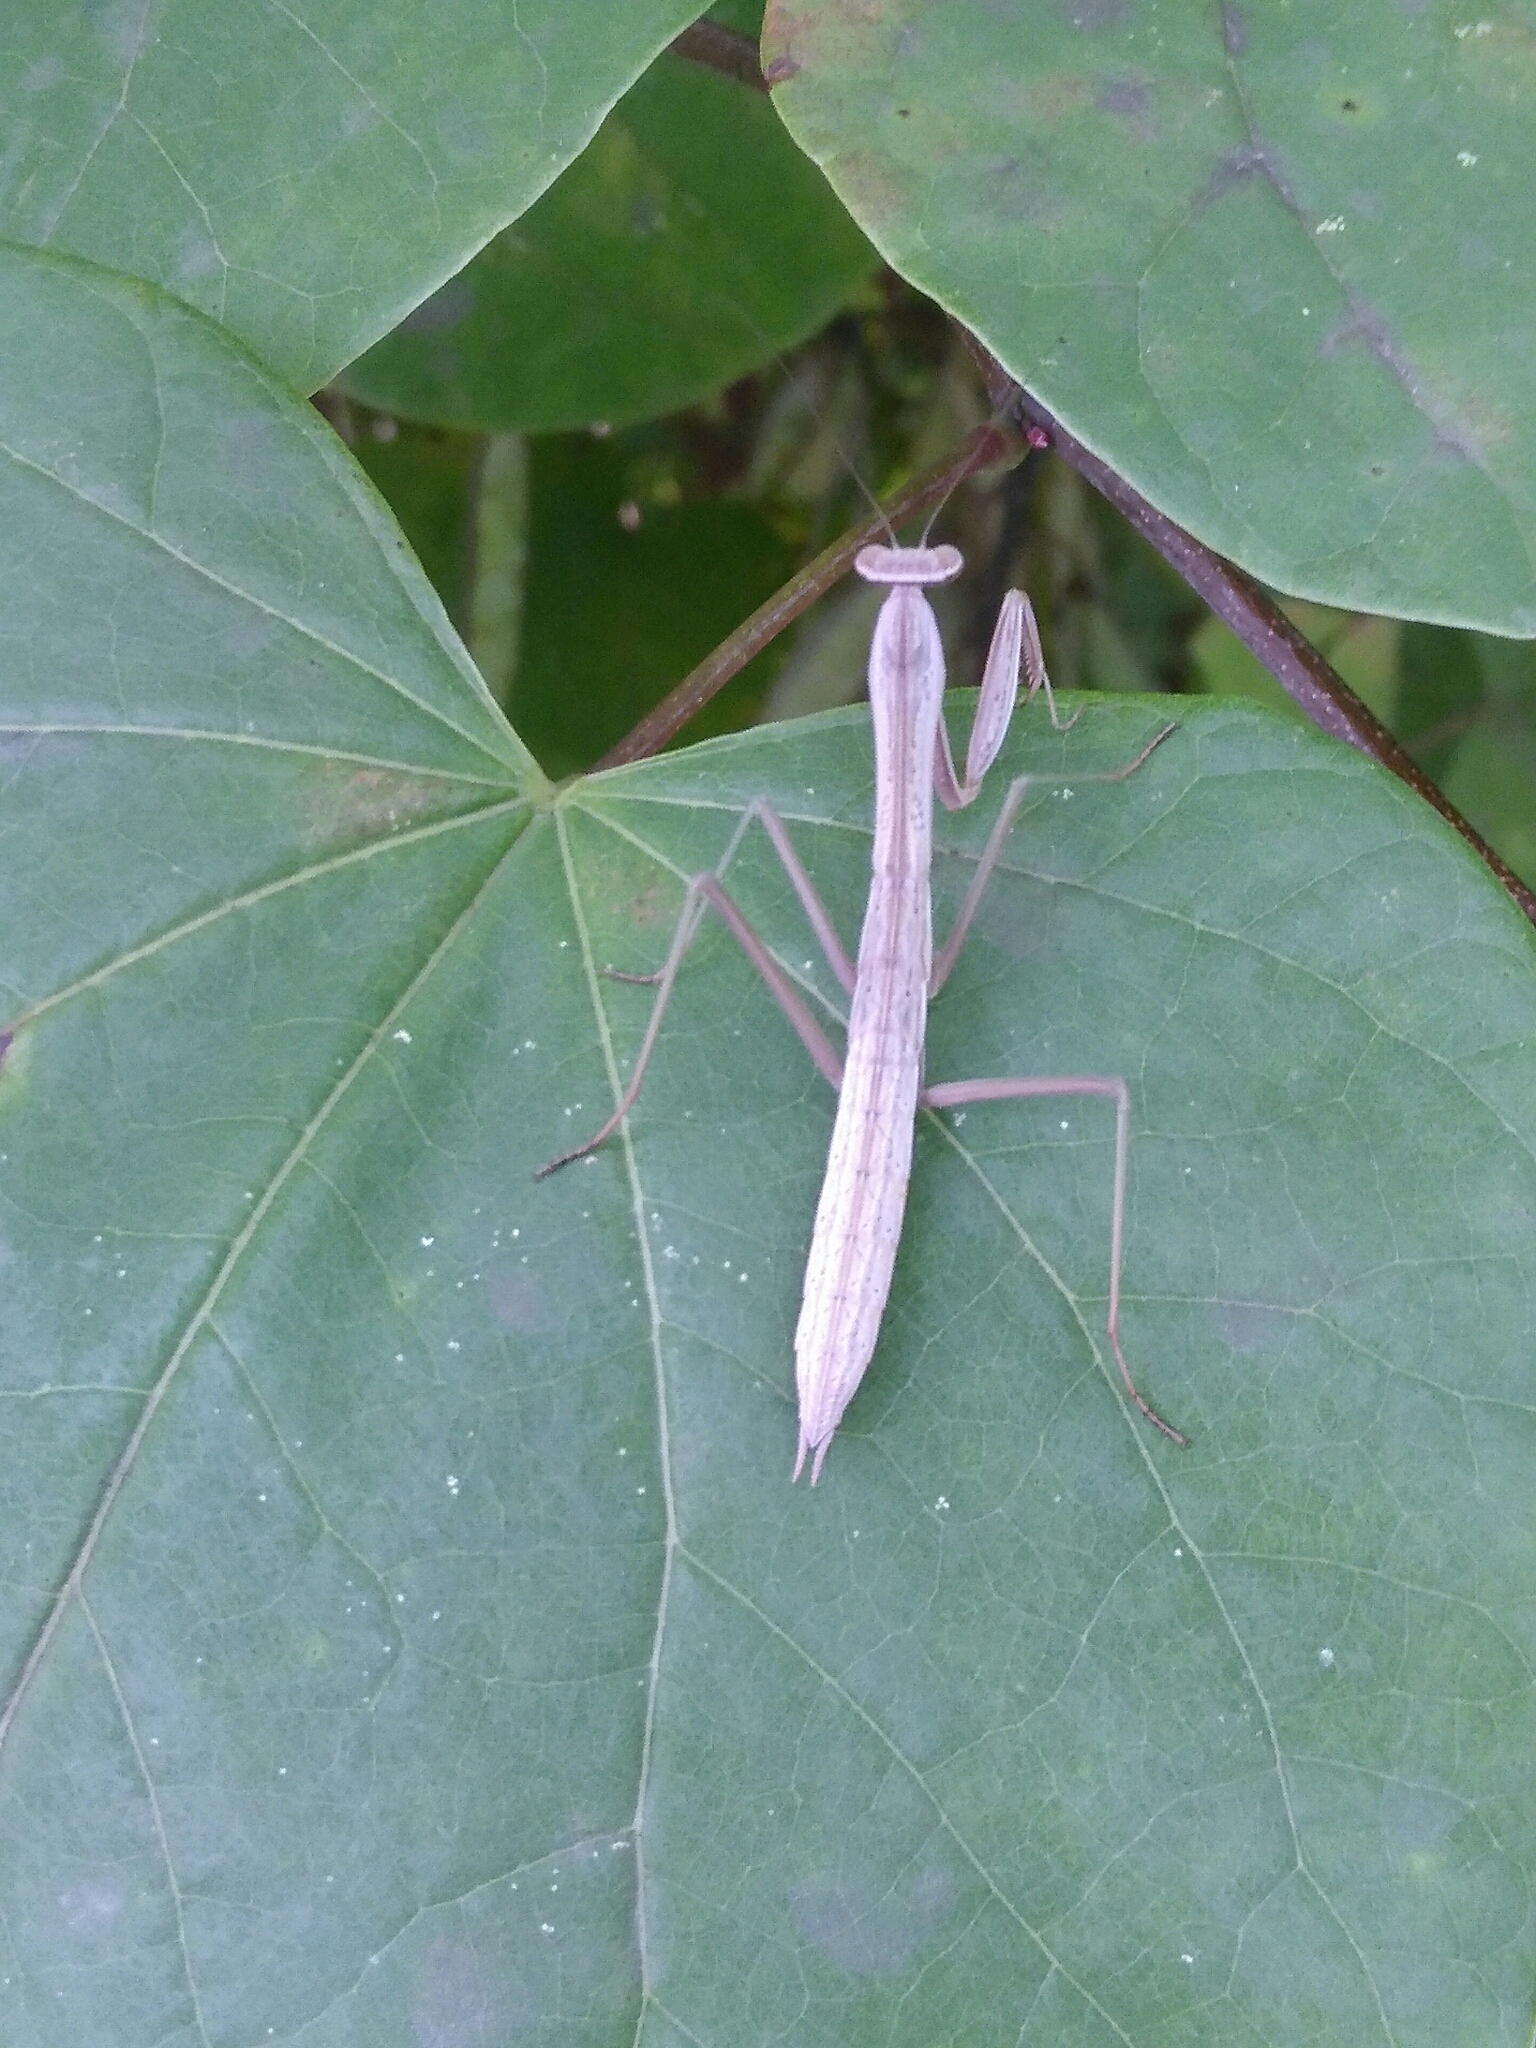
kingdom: Animalia
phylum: Arthropoda
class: Insecta
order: Mantodea
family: Mantidae
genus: Tenodera
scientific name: Tenodera sinensis
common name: Chinese mantis
